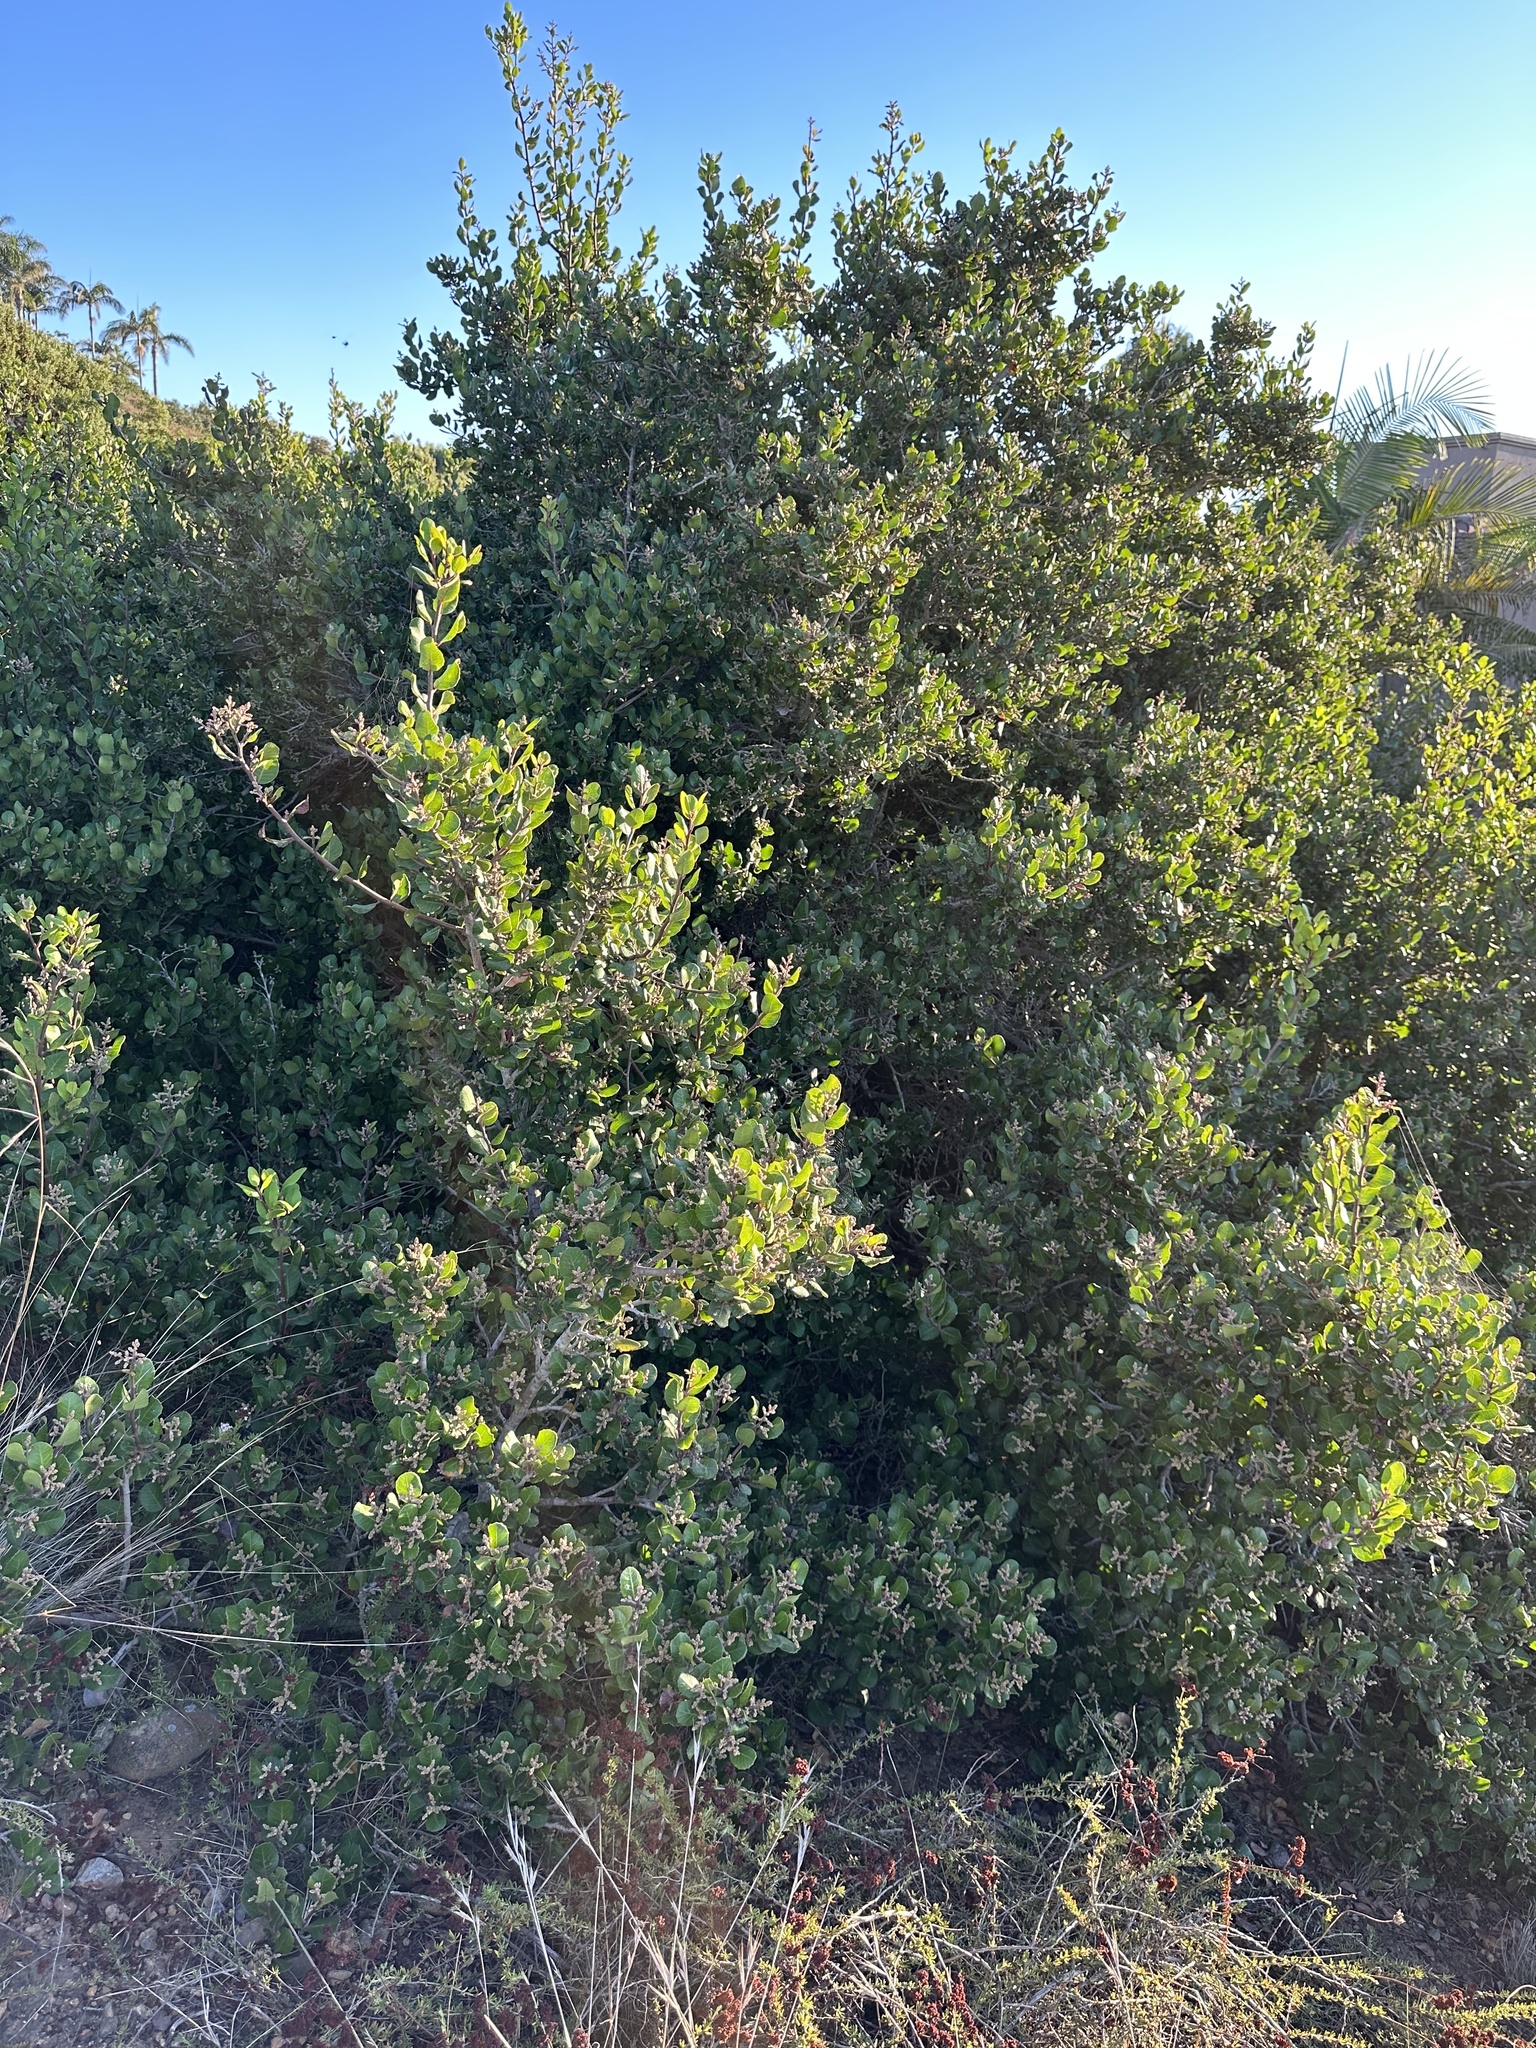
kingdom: Plantae
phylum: Tracheophyta
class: Magnoliopsida
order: Sapindales
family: Anacardiaceae
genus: Rhus
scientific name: Rhus integrifolia
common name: Lemonade sumac
